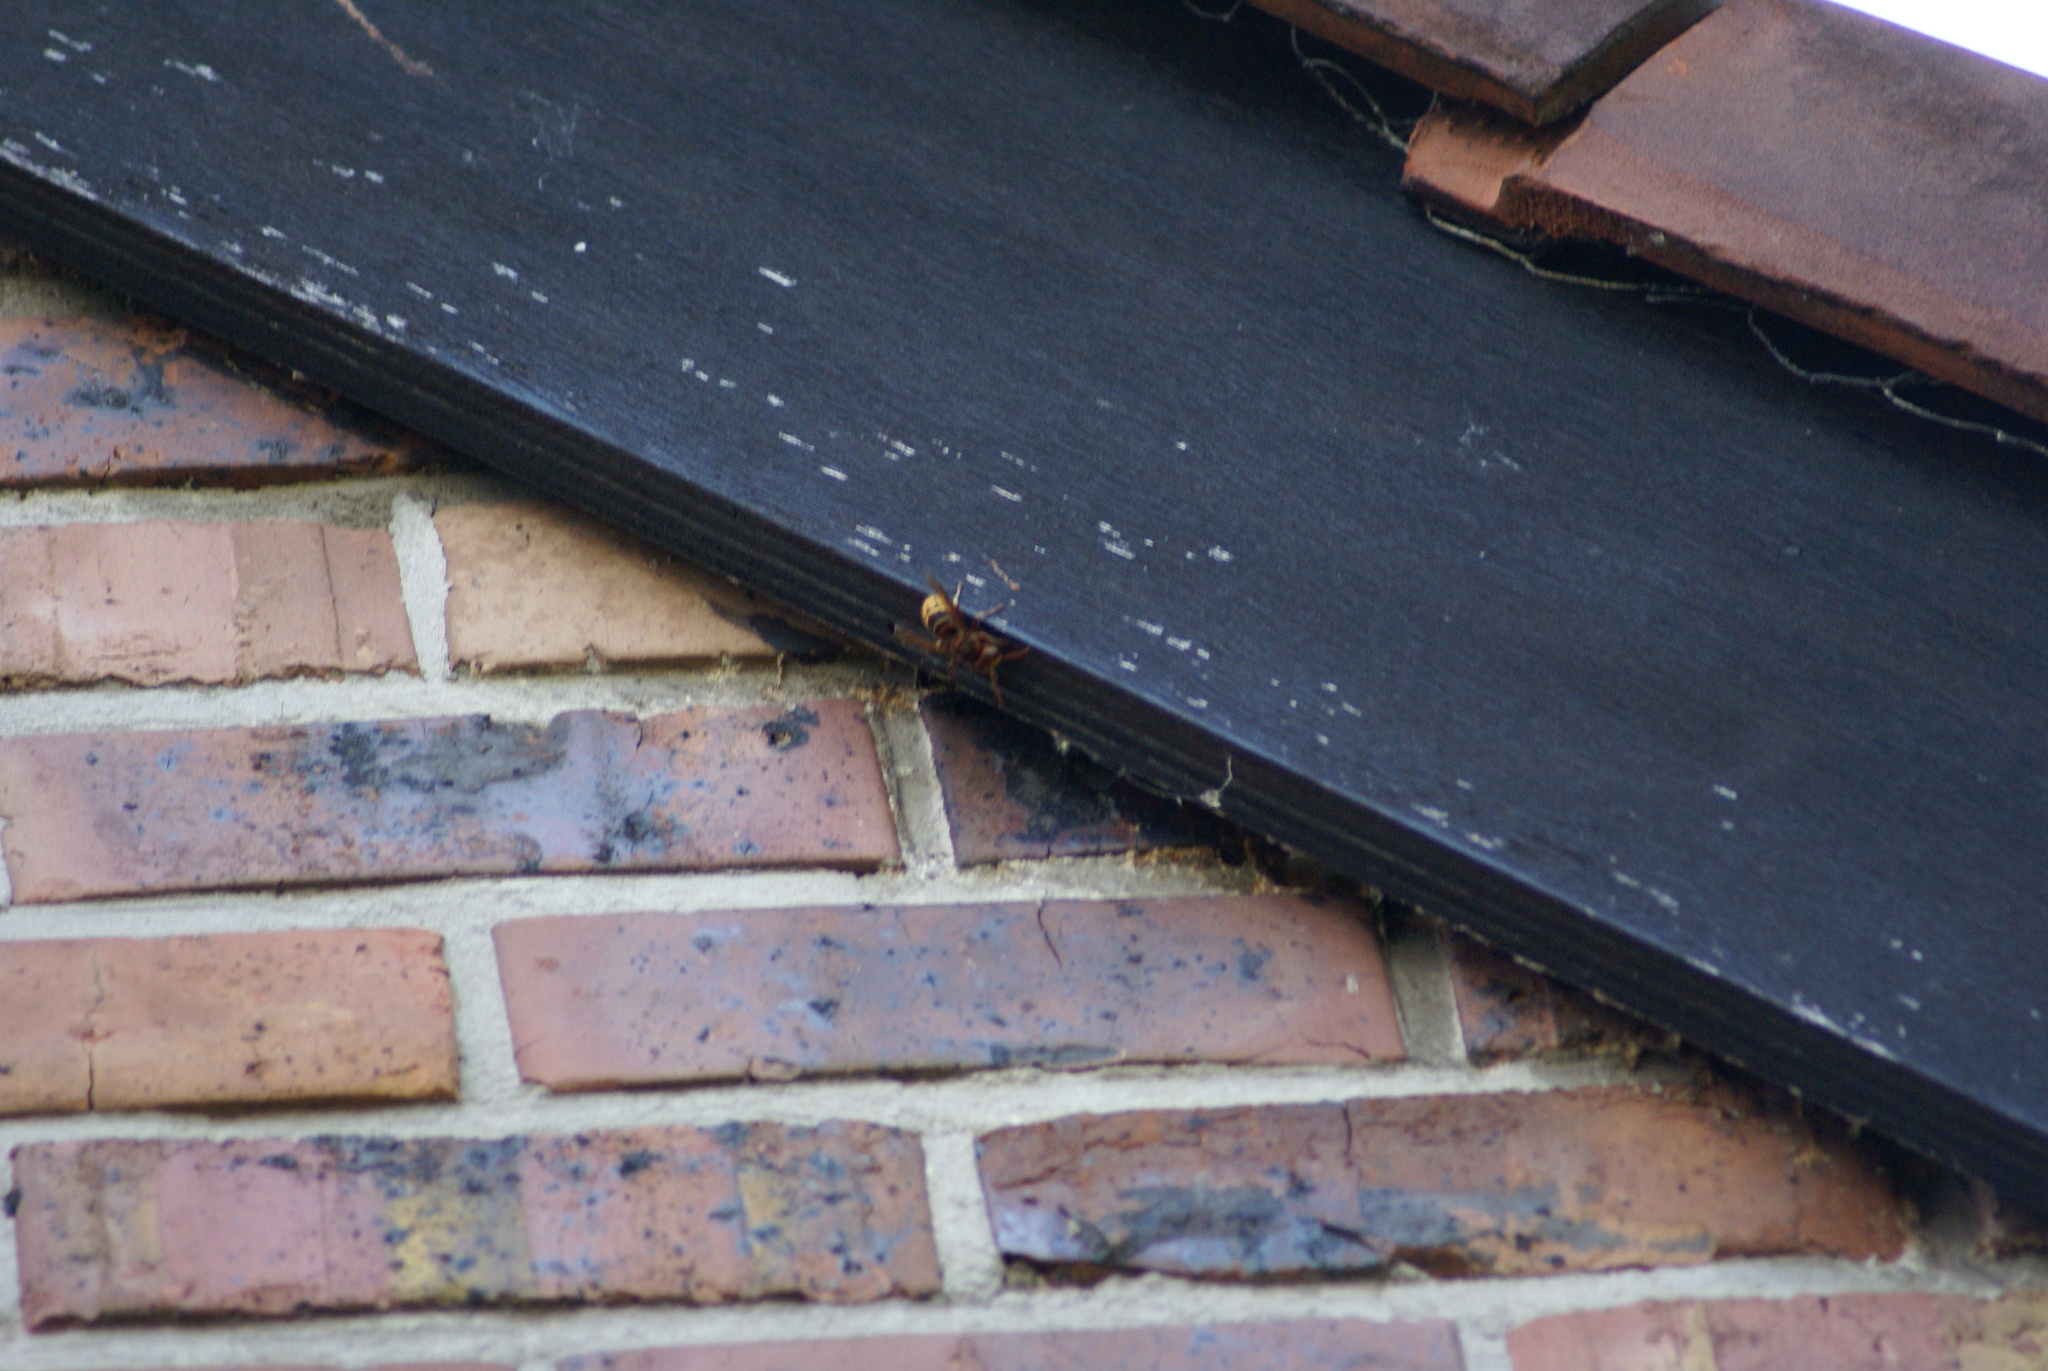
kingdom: Animalia
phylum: Arthropoda
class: Insecta
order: Hymenoptera
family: Vespidae
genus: Vespa
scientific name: Vespa crabro
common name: Hornet
